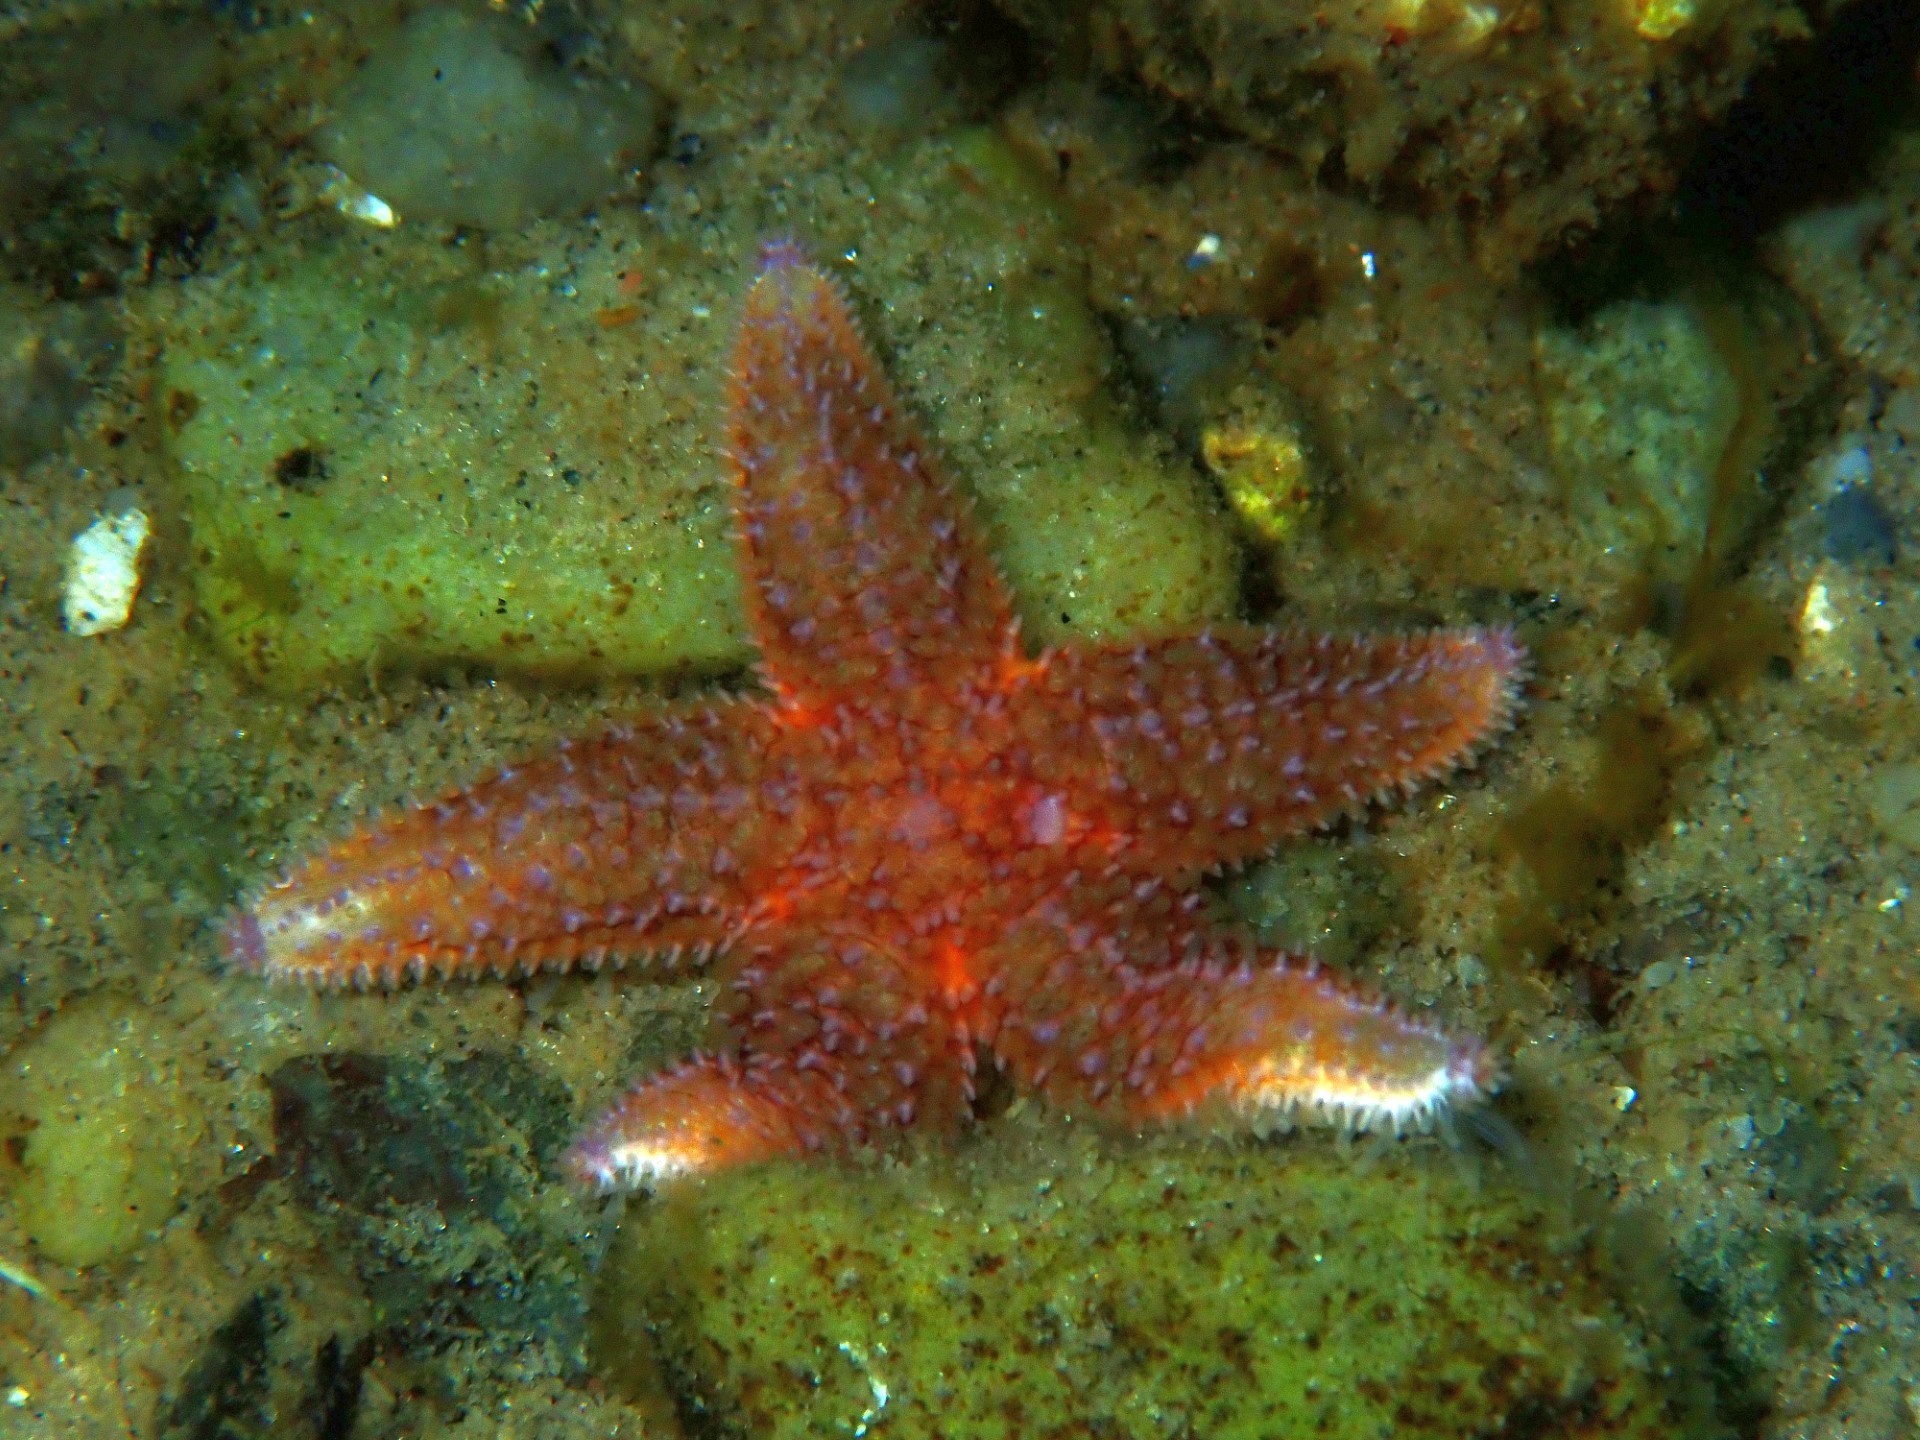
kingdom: Animalia
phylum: Echinodermata
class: Asteroidea
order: Forcipulatida
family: Asteriidae
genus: Asterias
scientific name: Asterias rubens
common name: Common starfish
